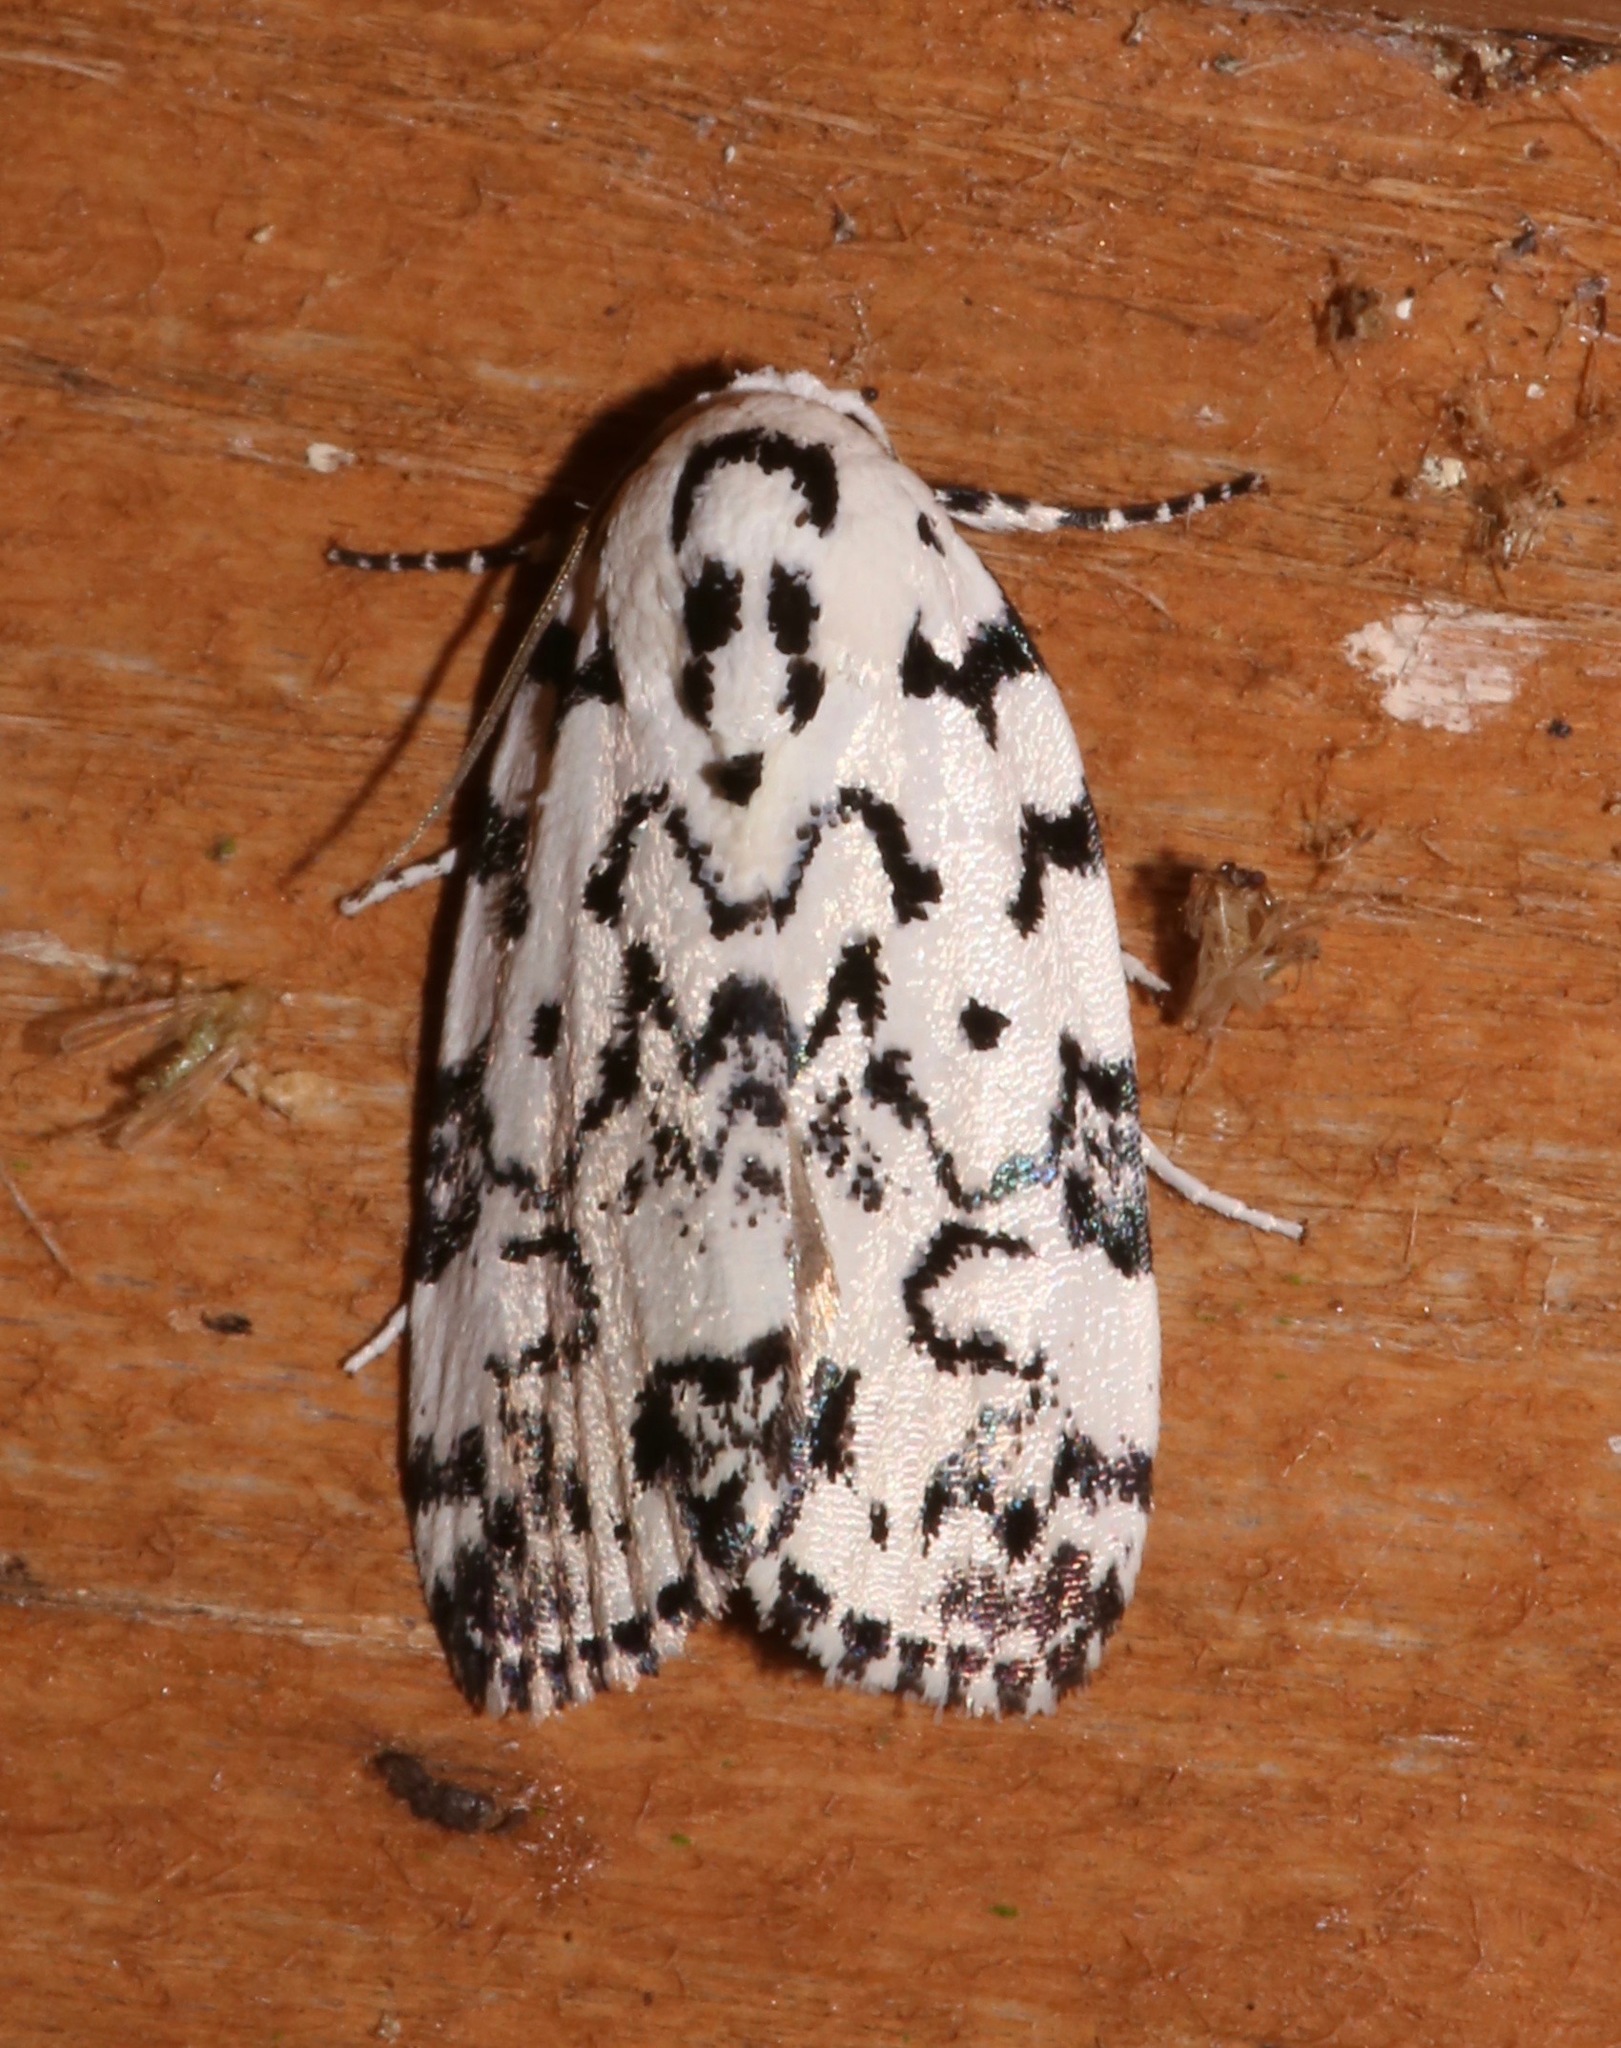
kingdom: Animalia
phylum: Arthropoda
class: Insecta
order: Lepidoptera
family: Noctuidae
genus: Polygrammate
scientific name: Polygrammate hebraeicum
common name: Hebrew moth
